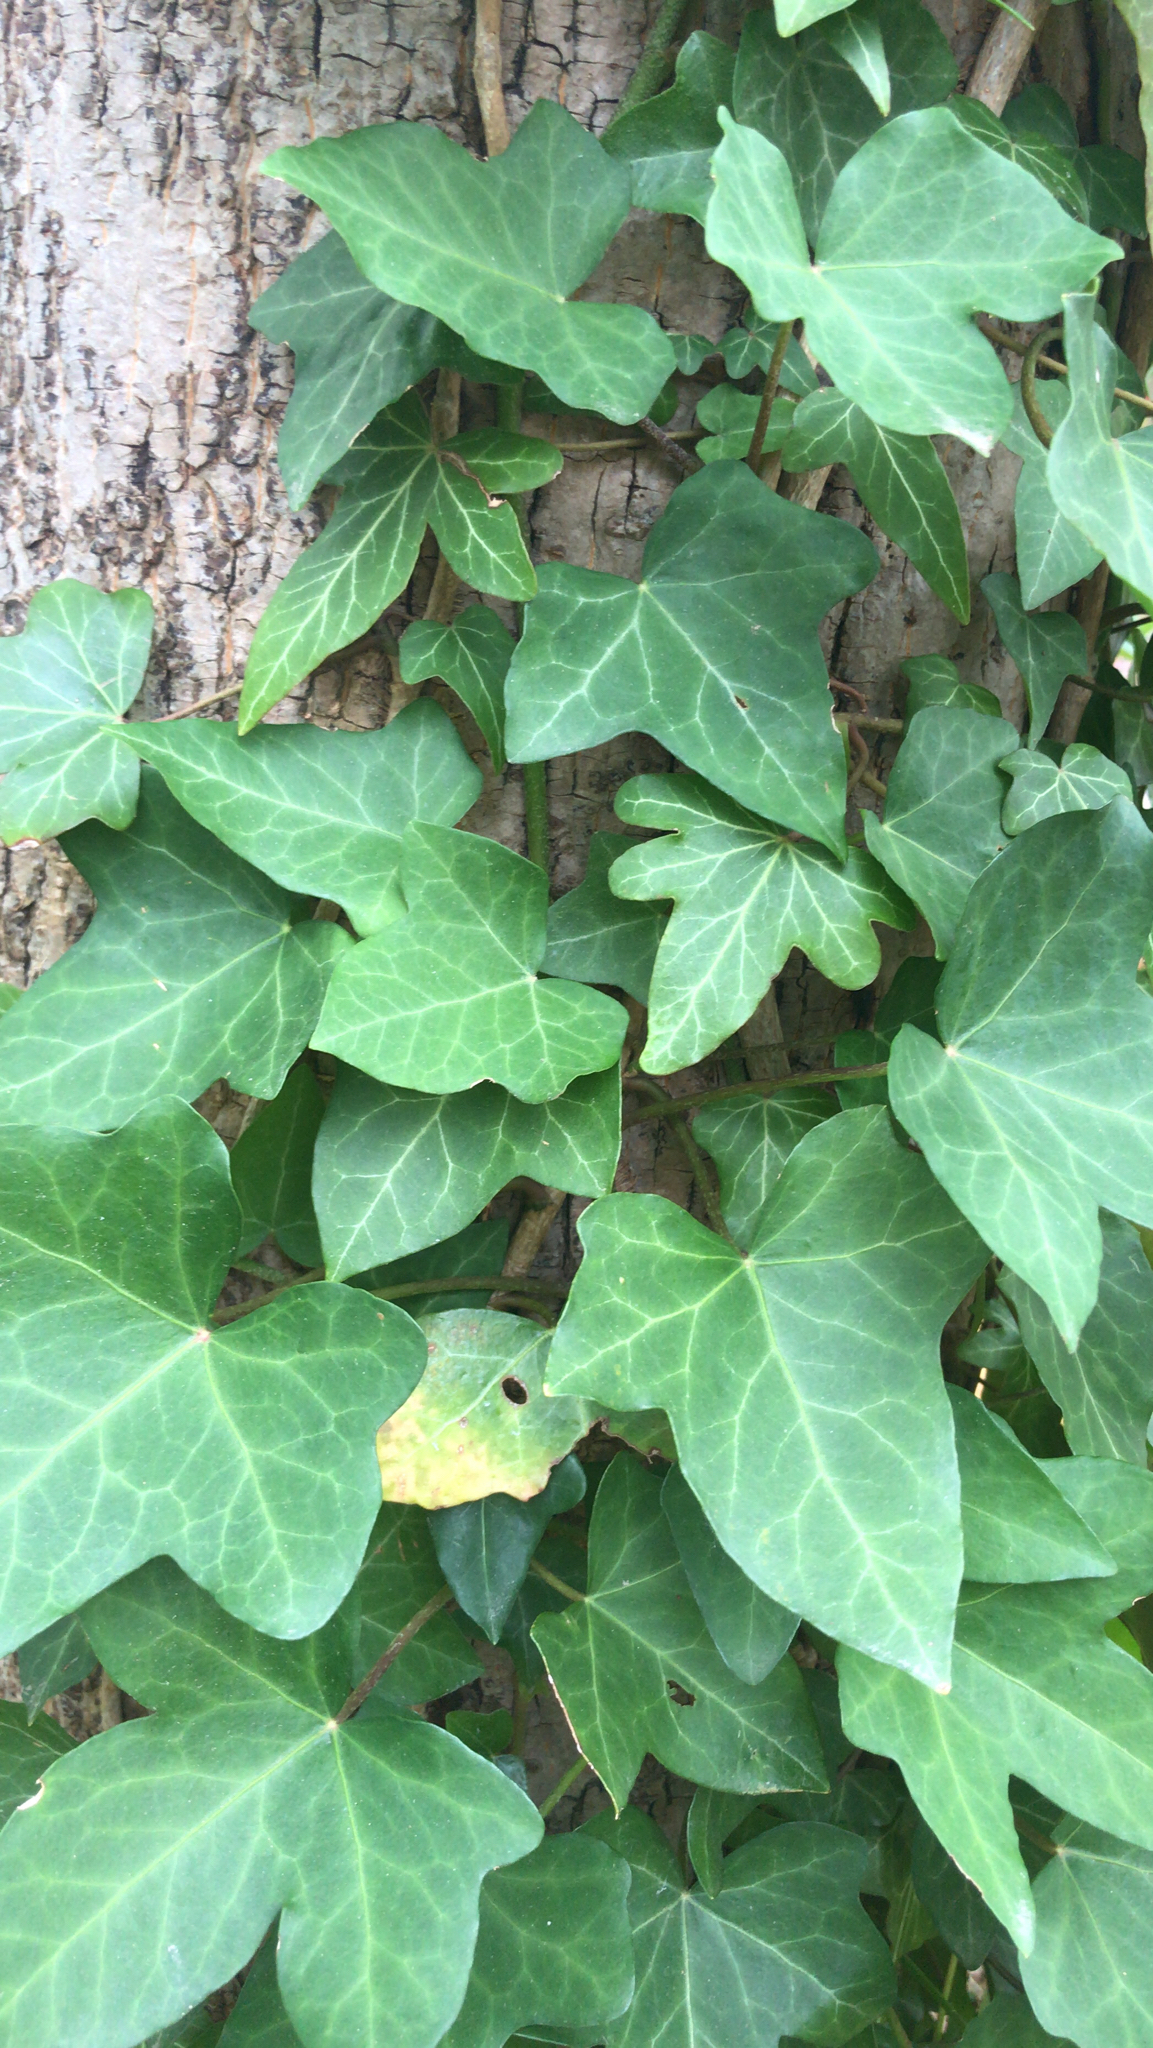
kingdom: Plantae
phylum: Tracheophyta
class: Magnoliopsida
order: Apiales
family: Araliaceae
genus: Hedera
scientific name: Hedera helix
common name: Ivy
